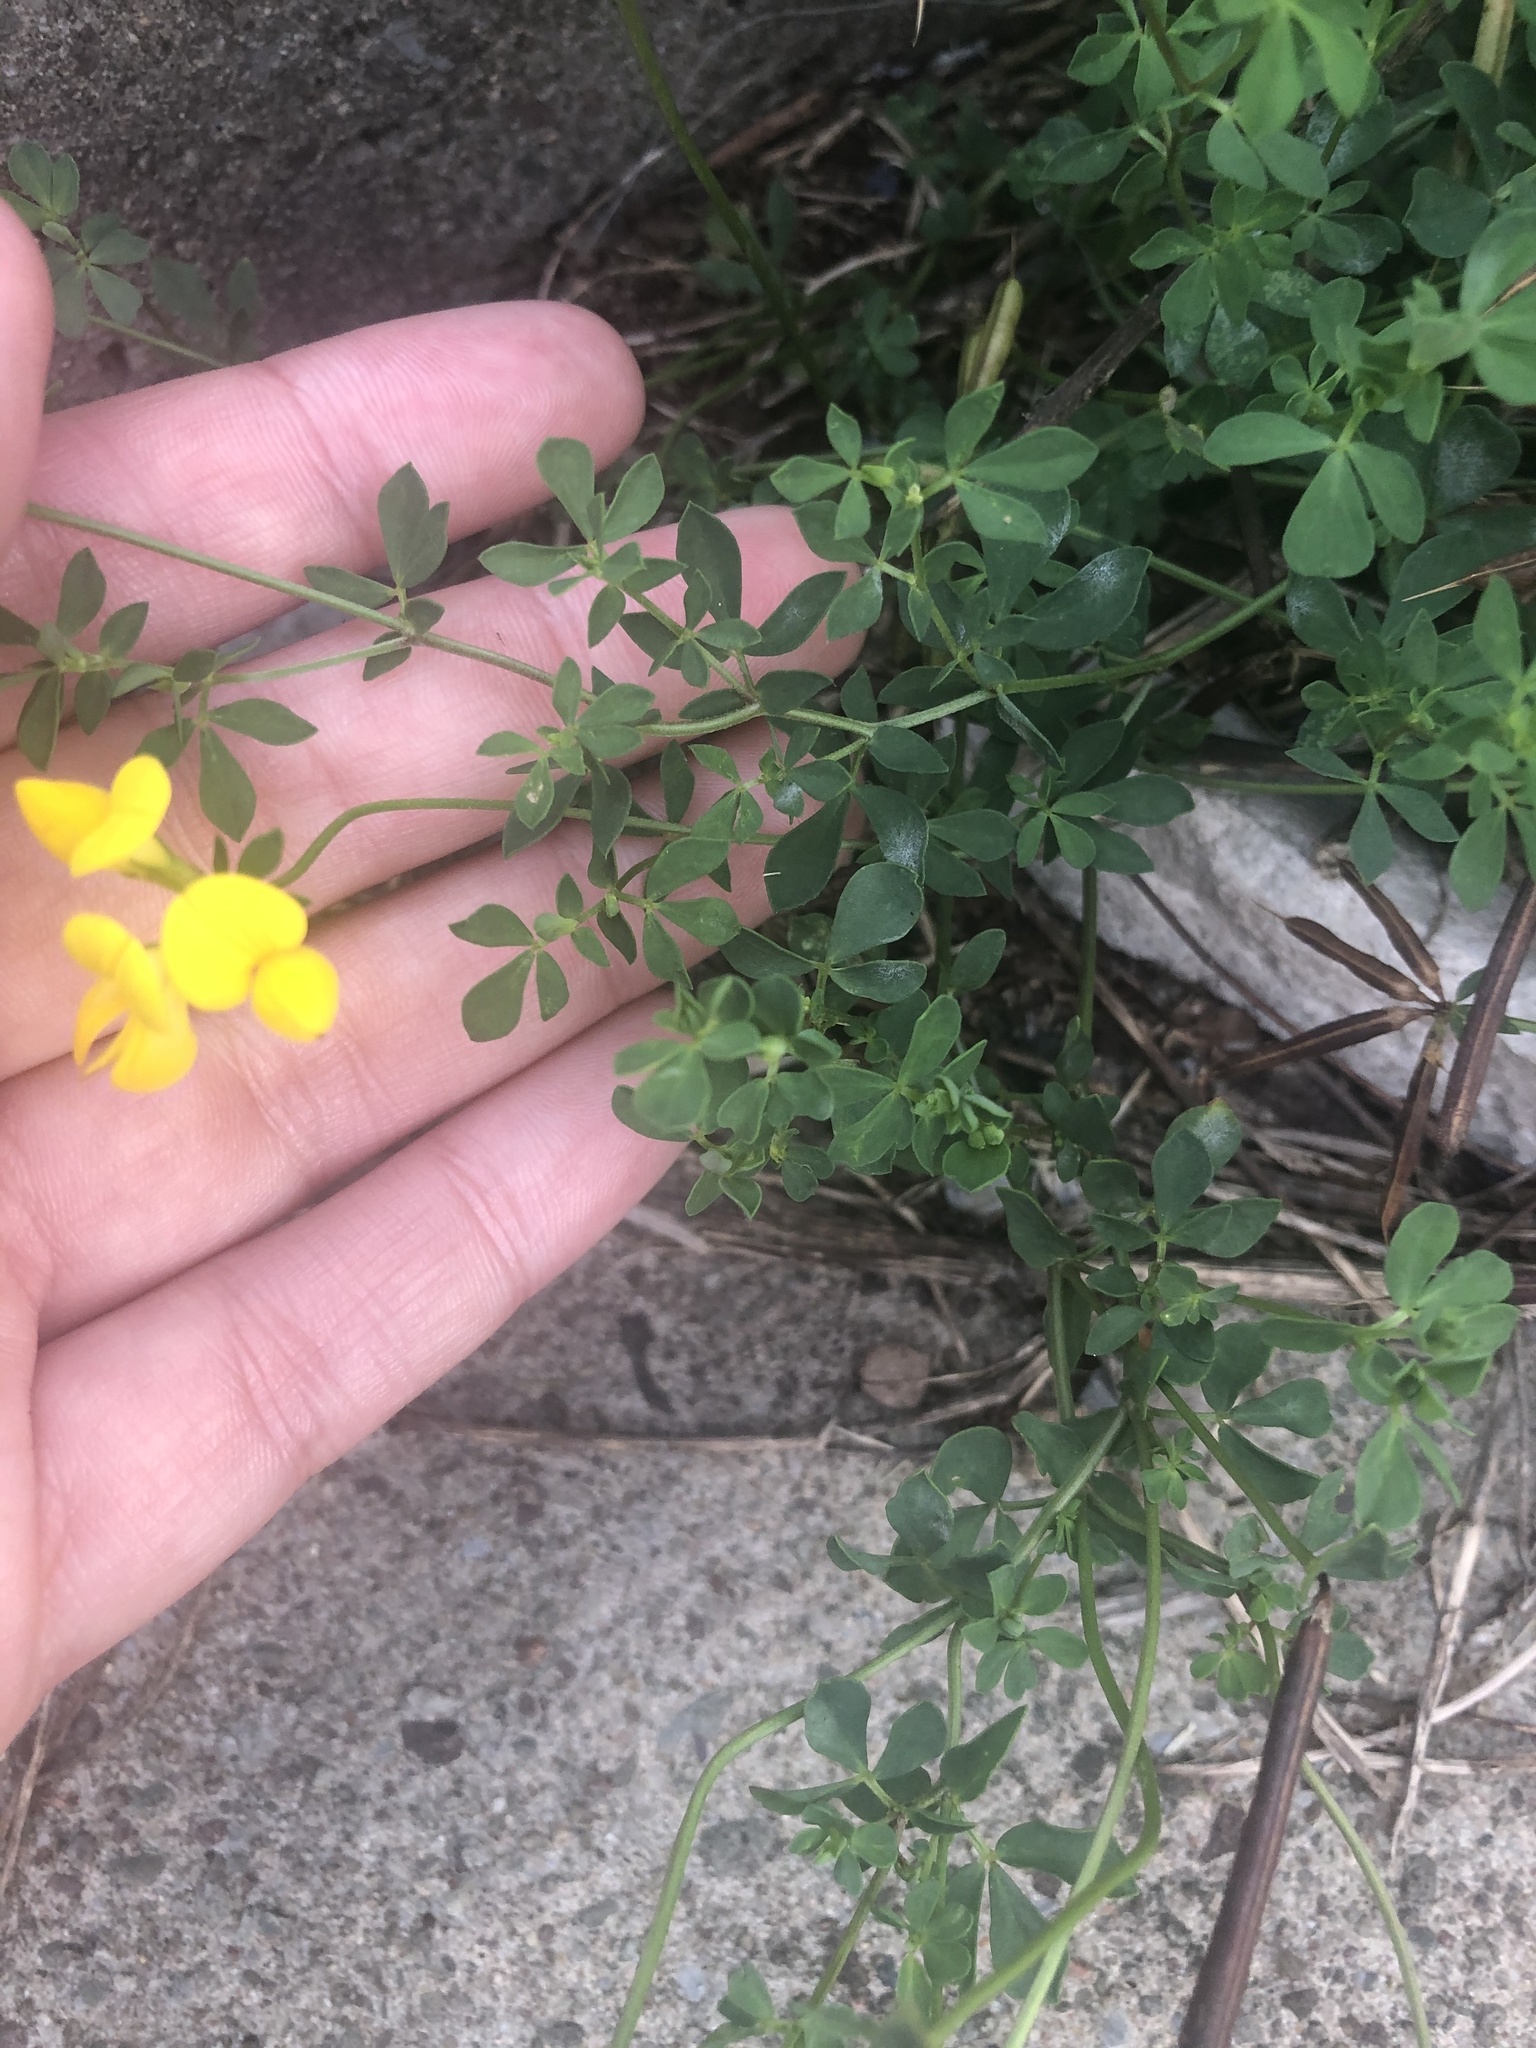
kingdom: Plantae
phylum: Tracheophyta
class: Magnoliopsida
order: Fabales
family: Fabaceae
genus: Lotus
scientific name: Lotus corniculatus
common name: Common bird's-foot-trefoil
